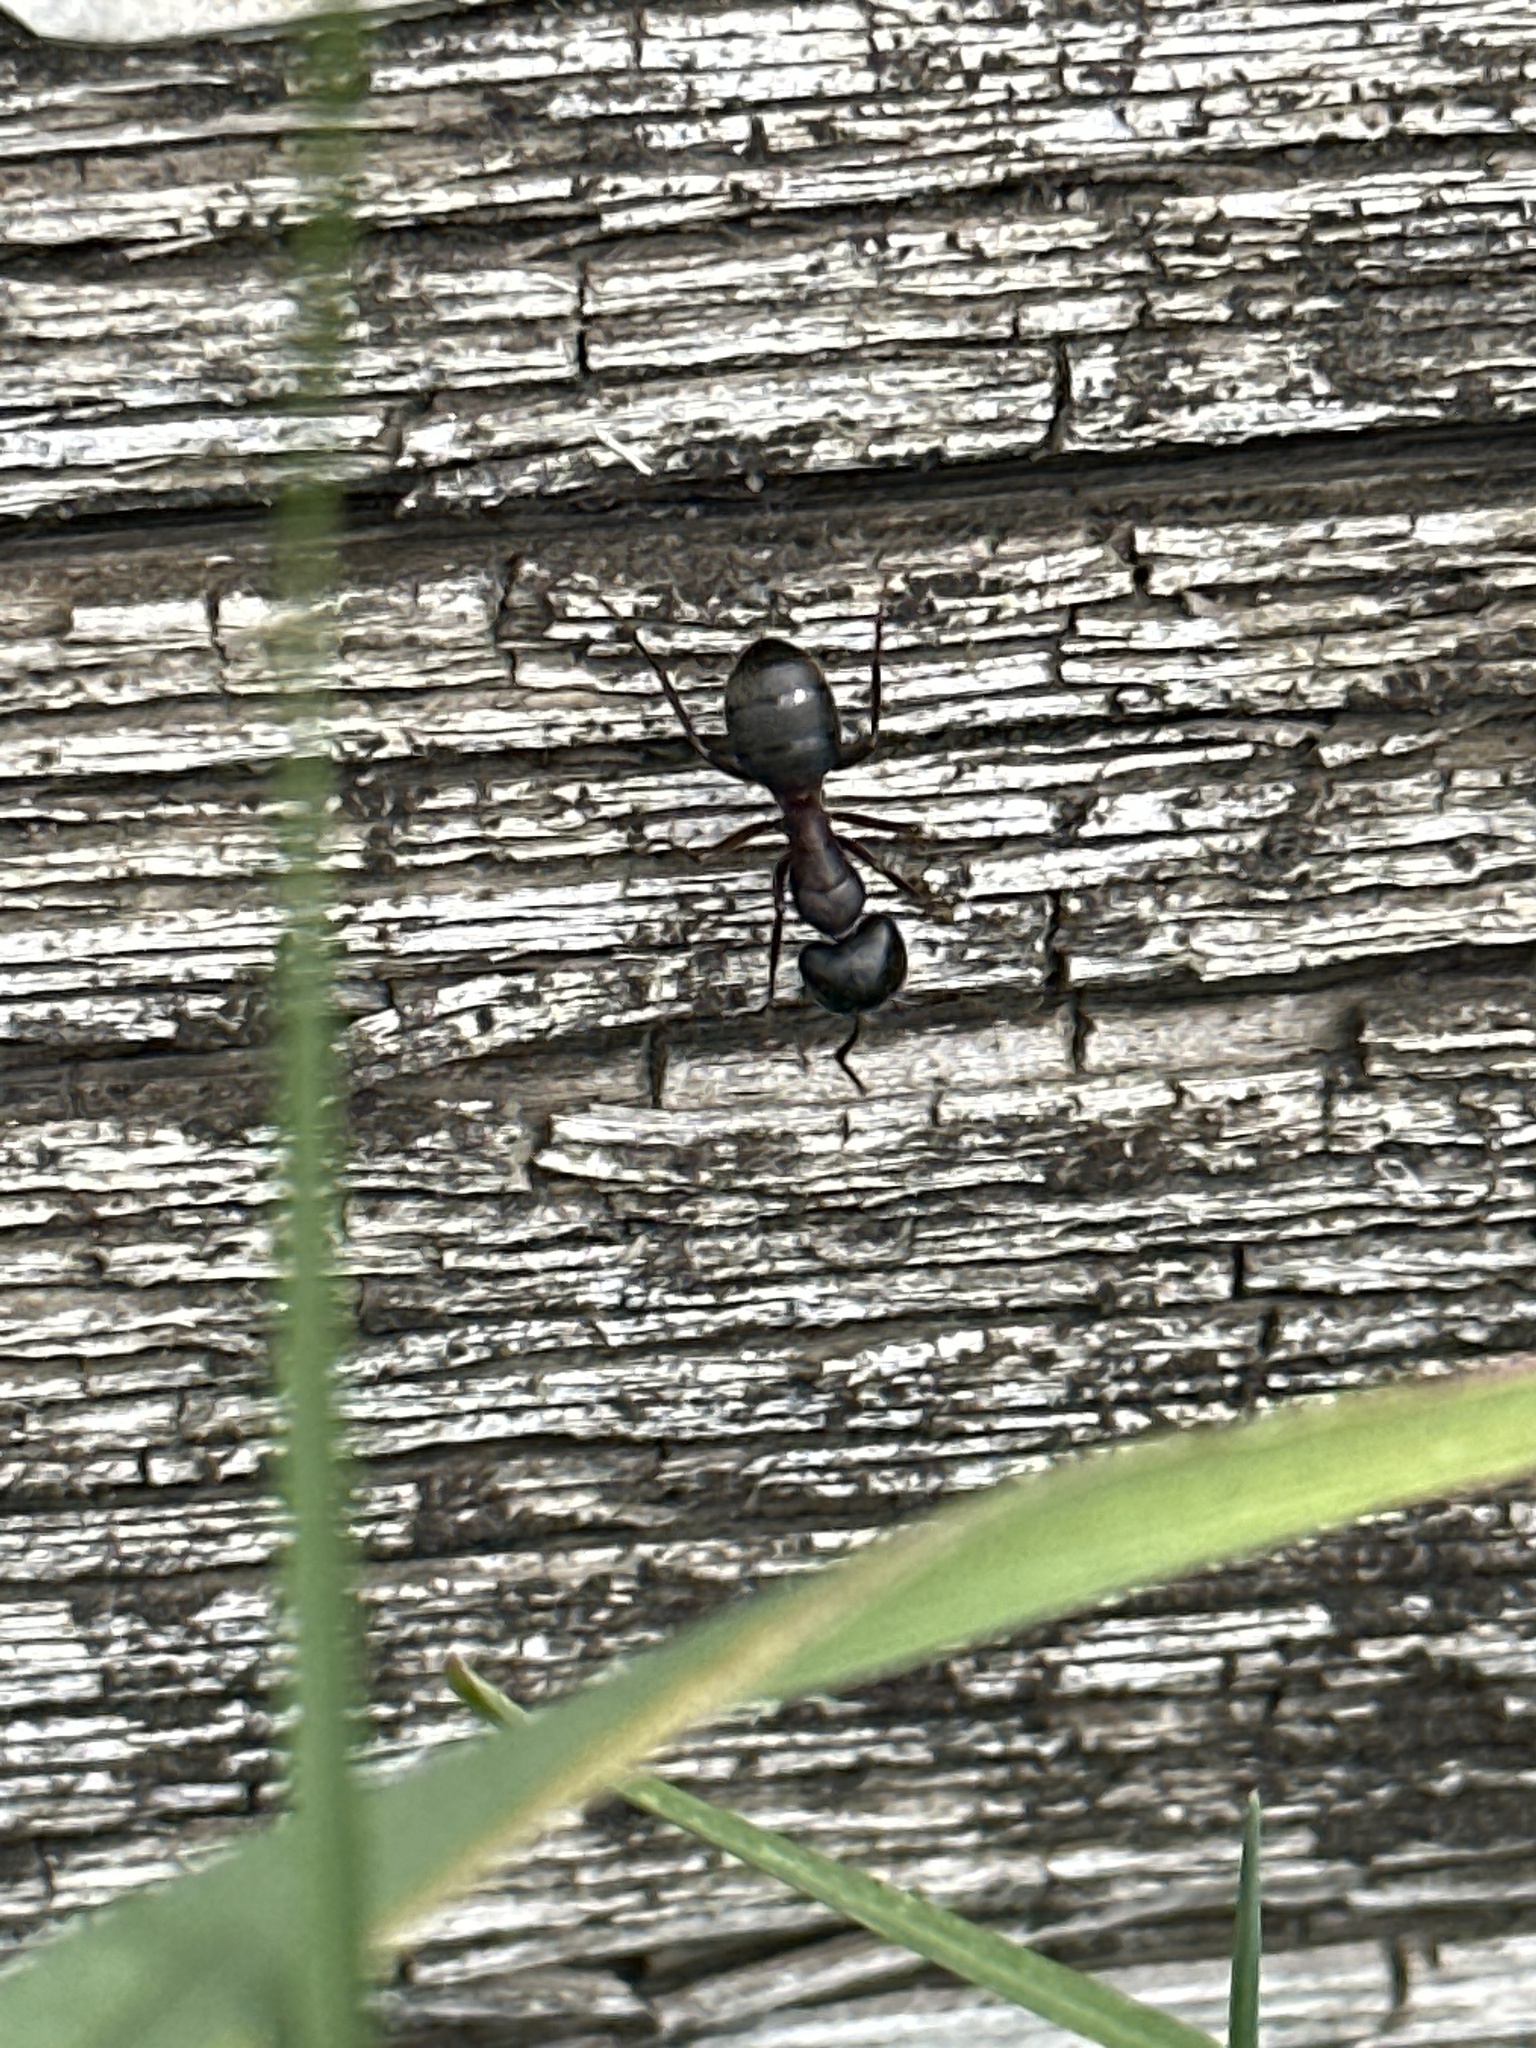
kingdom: Animalia
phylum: Arthropoda
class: Insecta
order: Hymenoptera
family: Formicidae
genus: Camponotus
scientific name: Camponotus herculeanus
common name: Hercules ant
